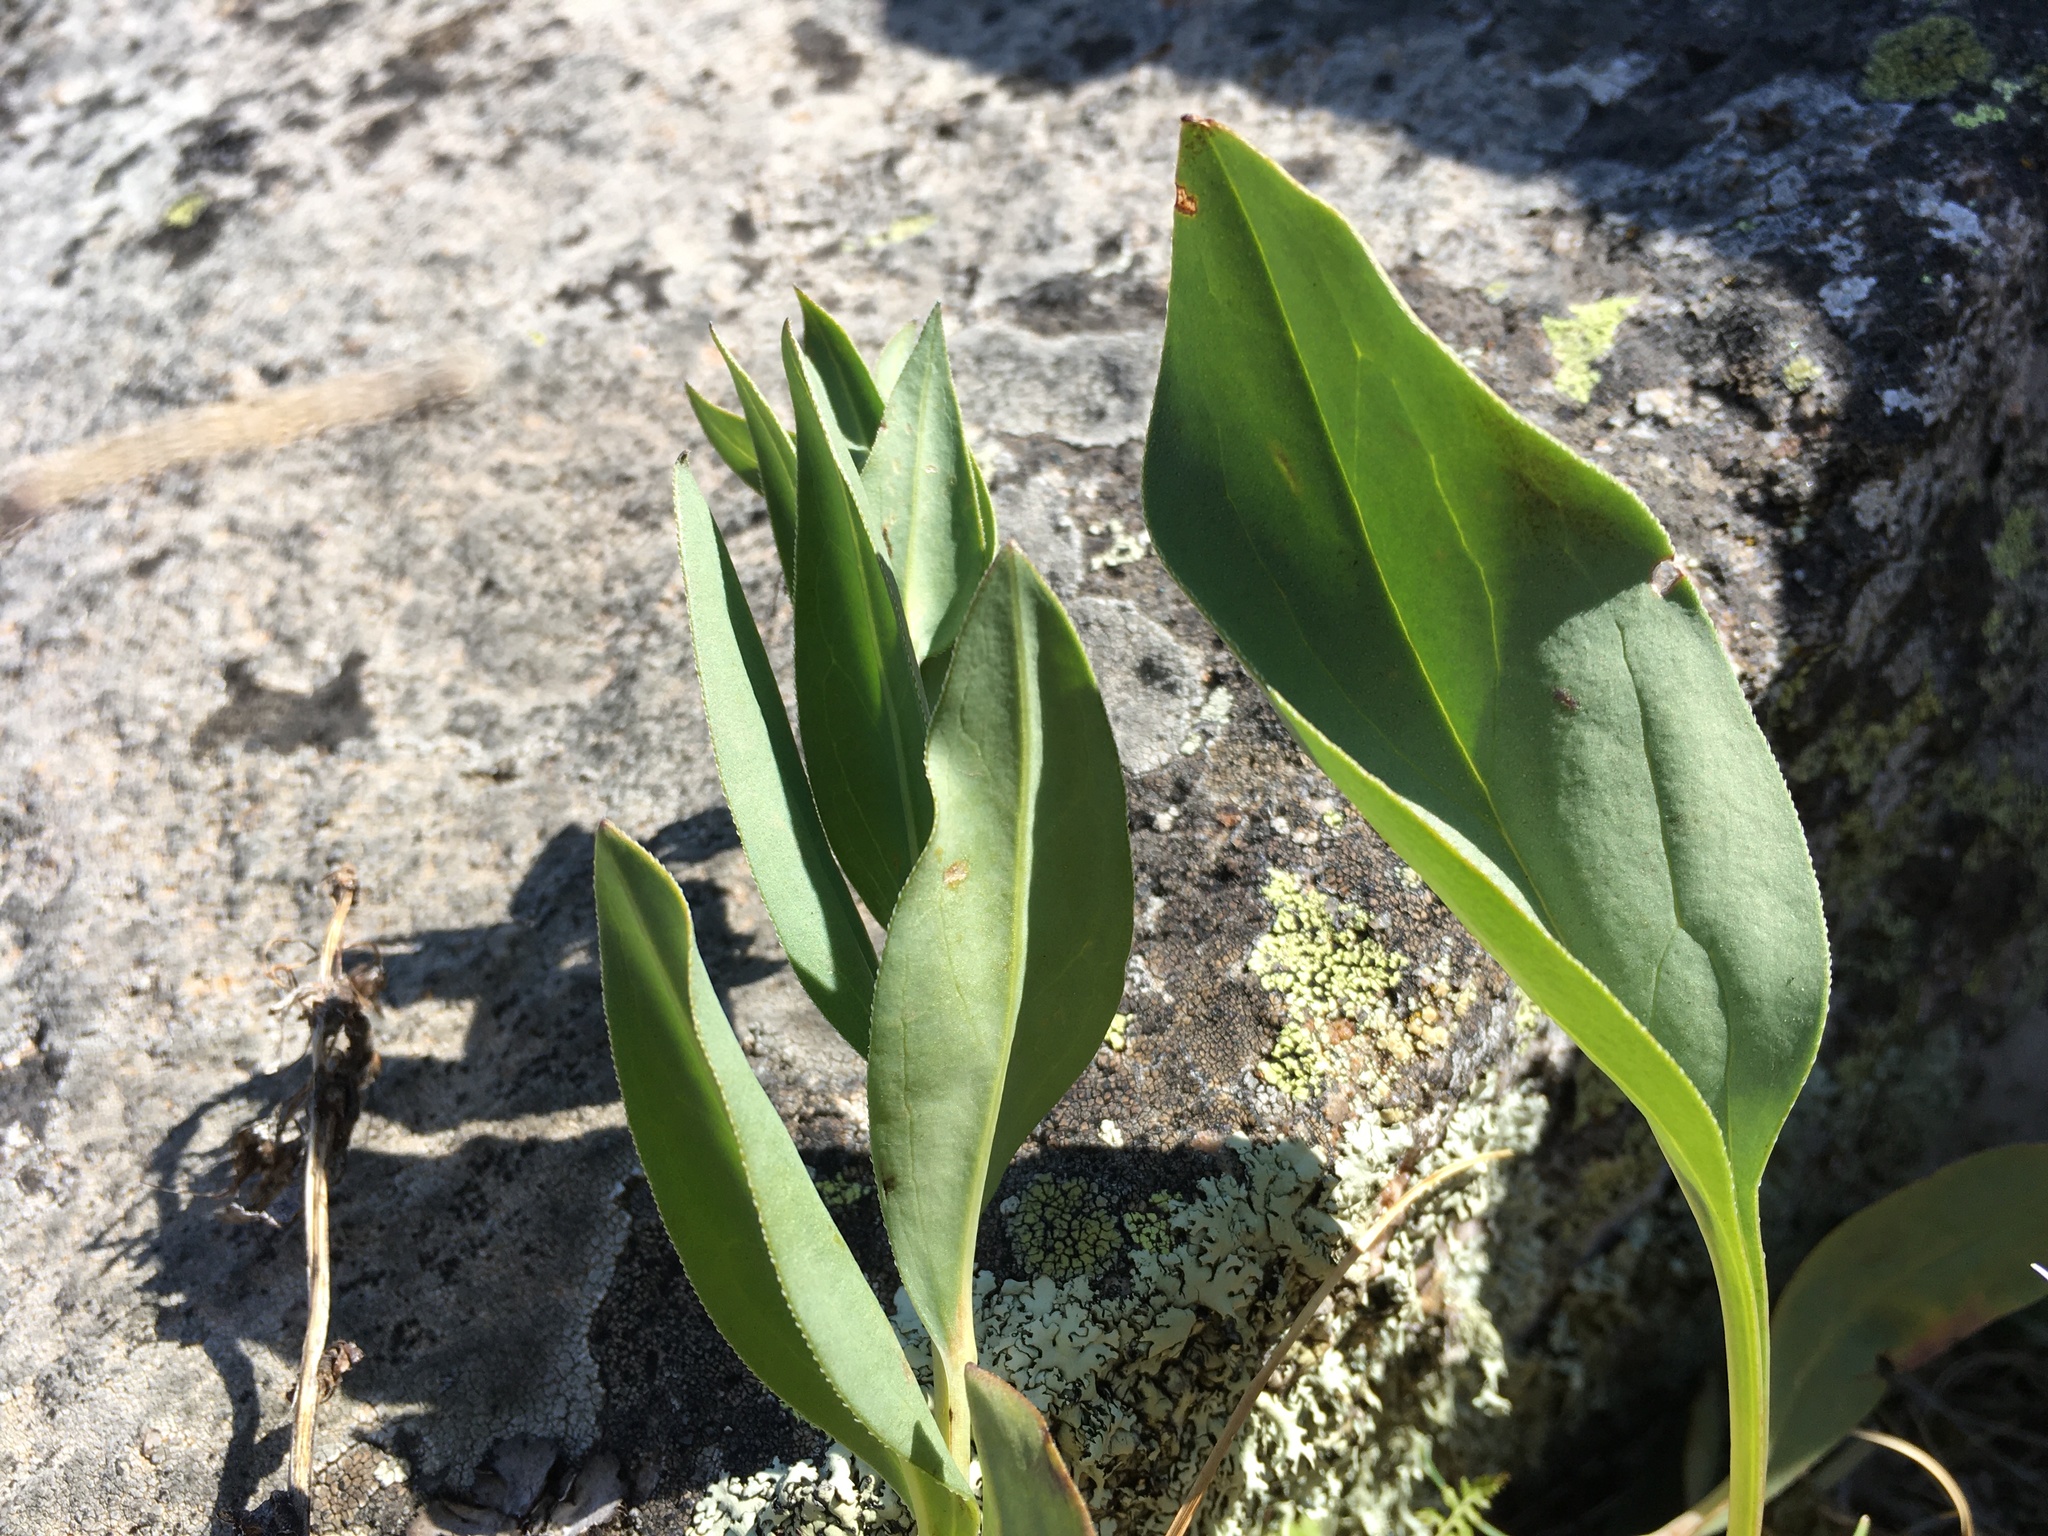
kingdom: Plantae
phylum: Tracheophyta
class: Magnoliopsida
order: Boraginales
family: Boraginaceae
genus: Mertensia
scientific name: Mertensia ovata
